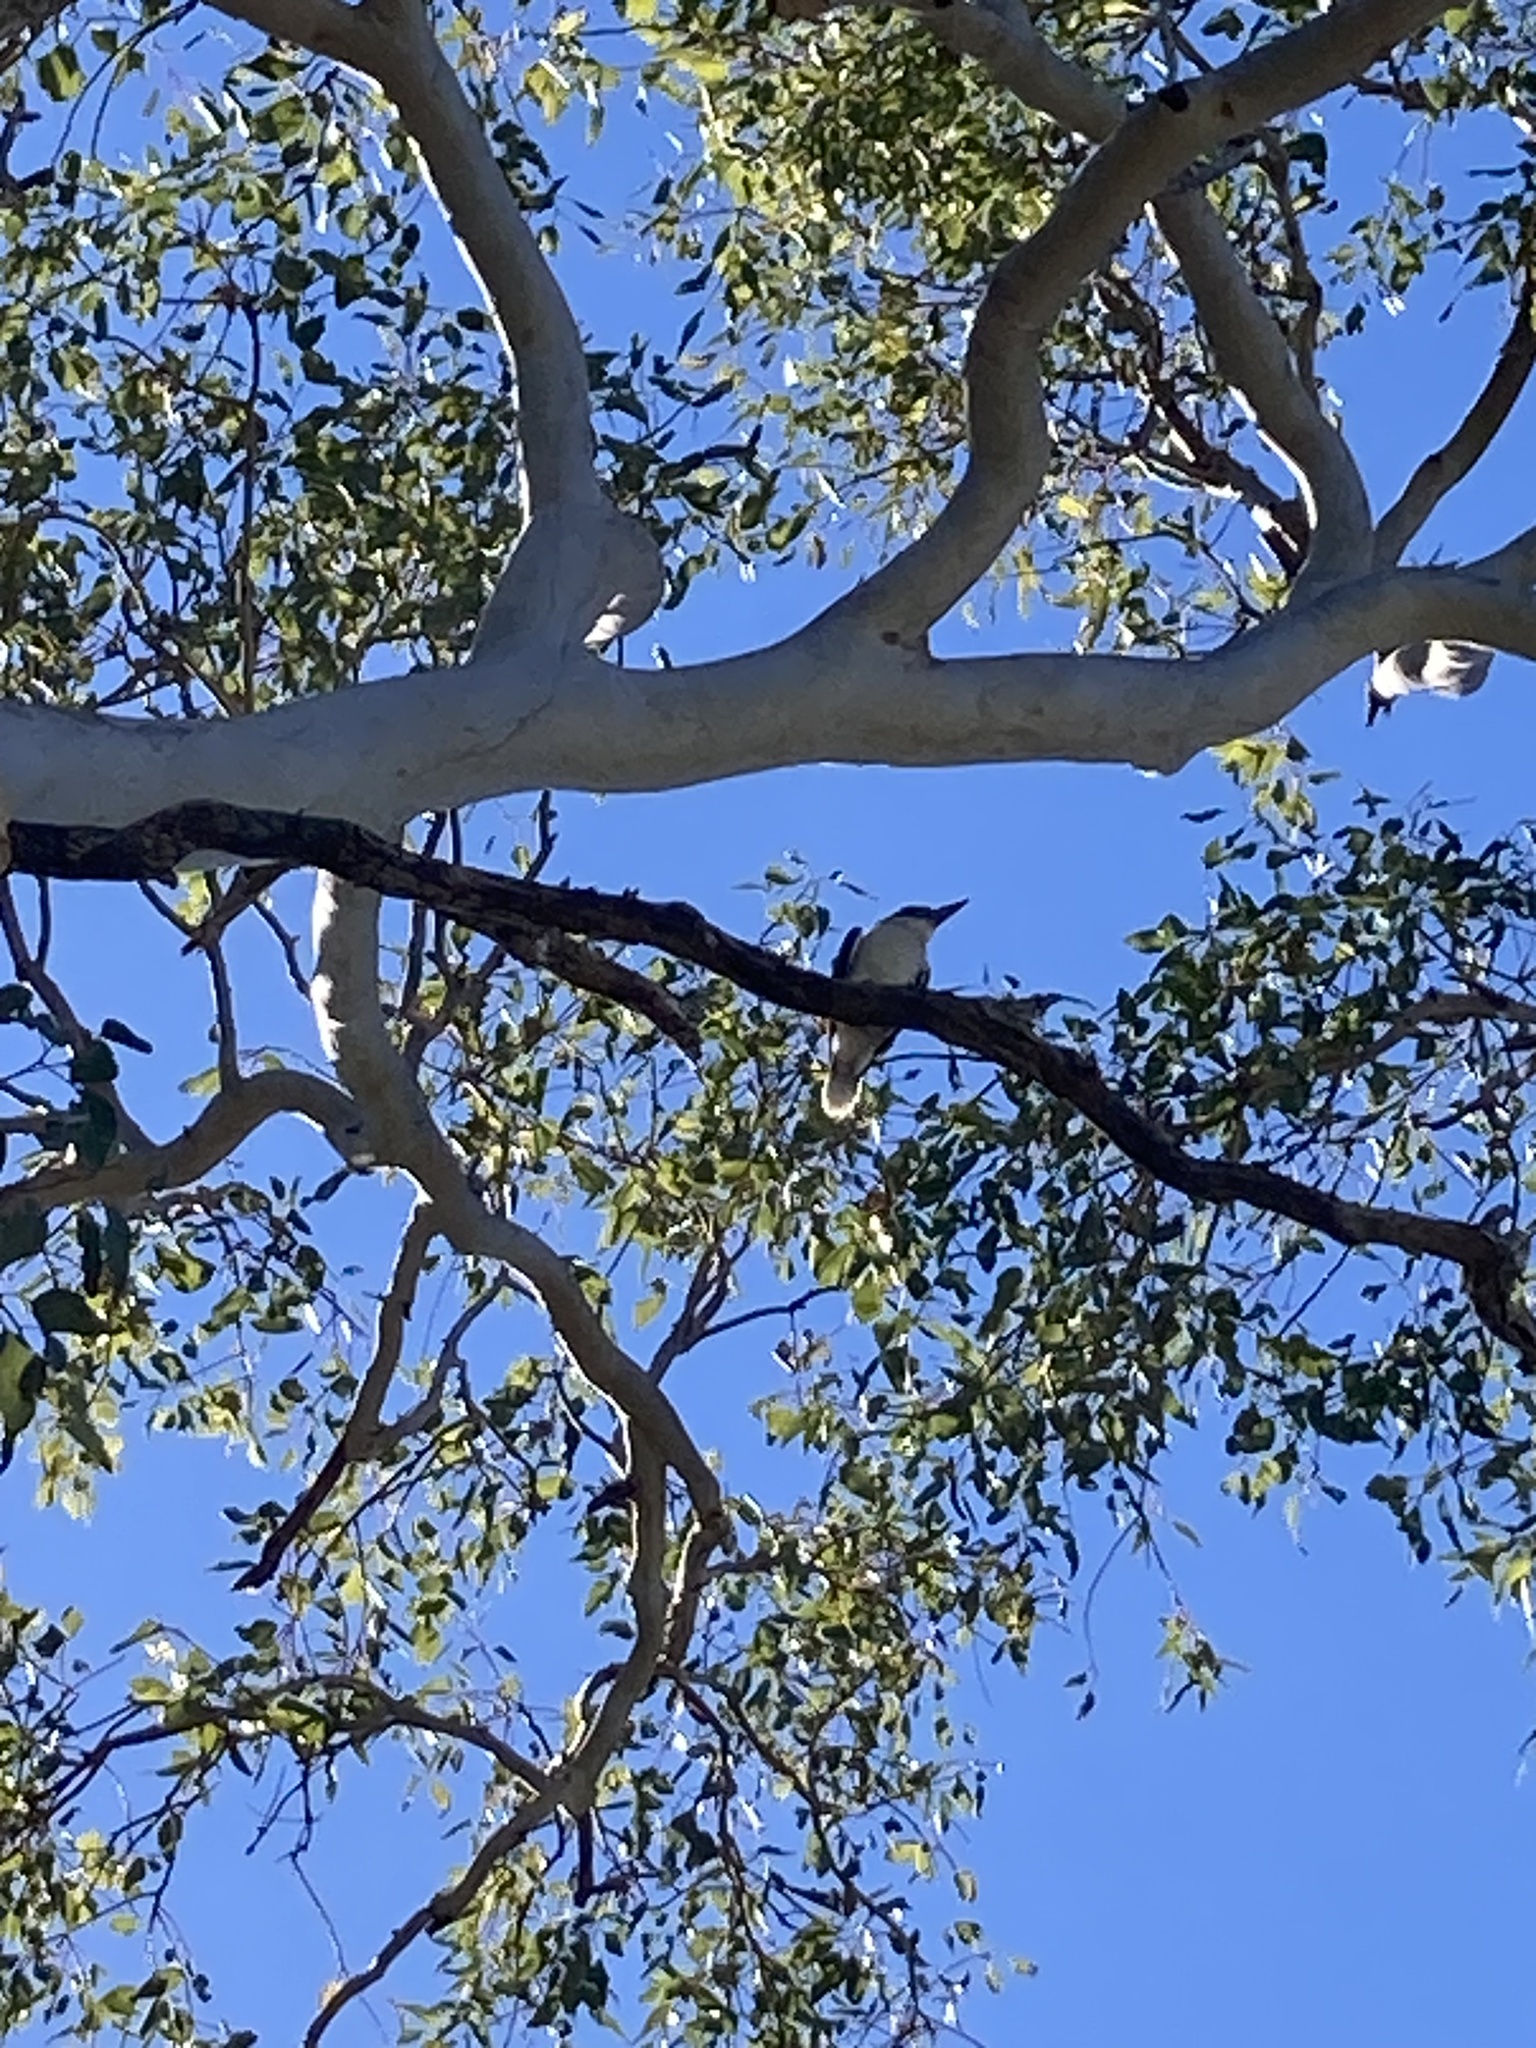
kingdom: Animalia
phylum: Chordata
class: Aves
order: Coraciiformes
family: Alcedinidae
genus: Dacelo
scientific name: Dacelo novaeguineae
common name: Laughing kookaburra
